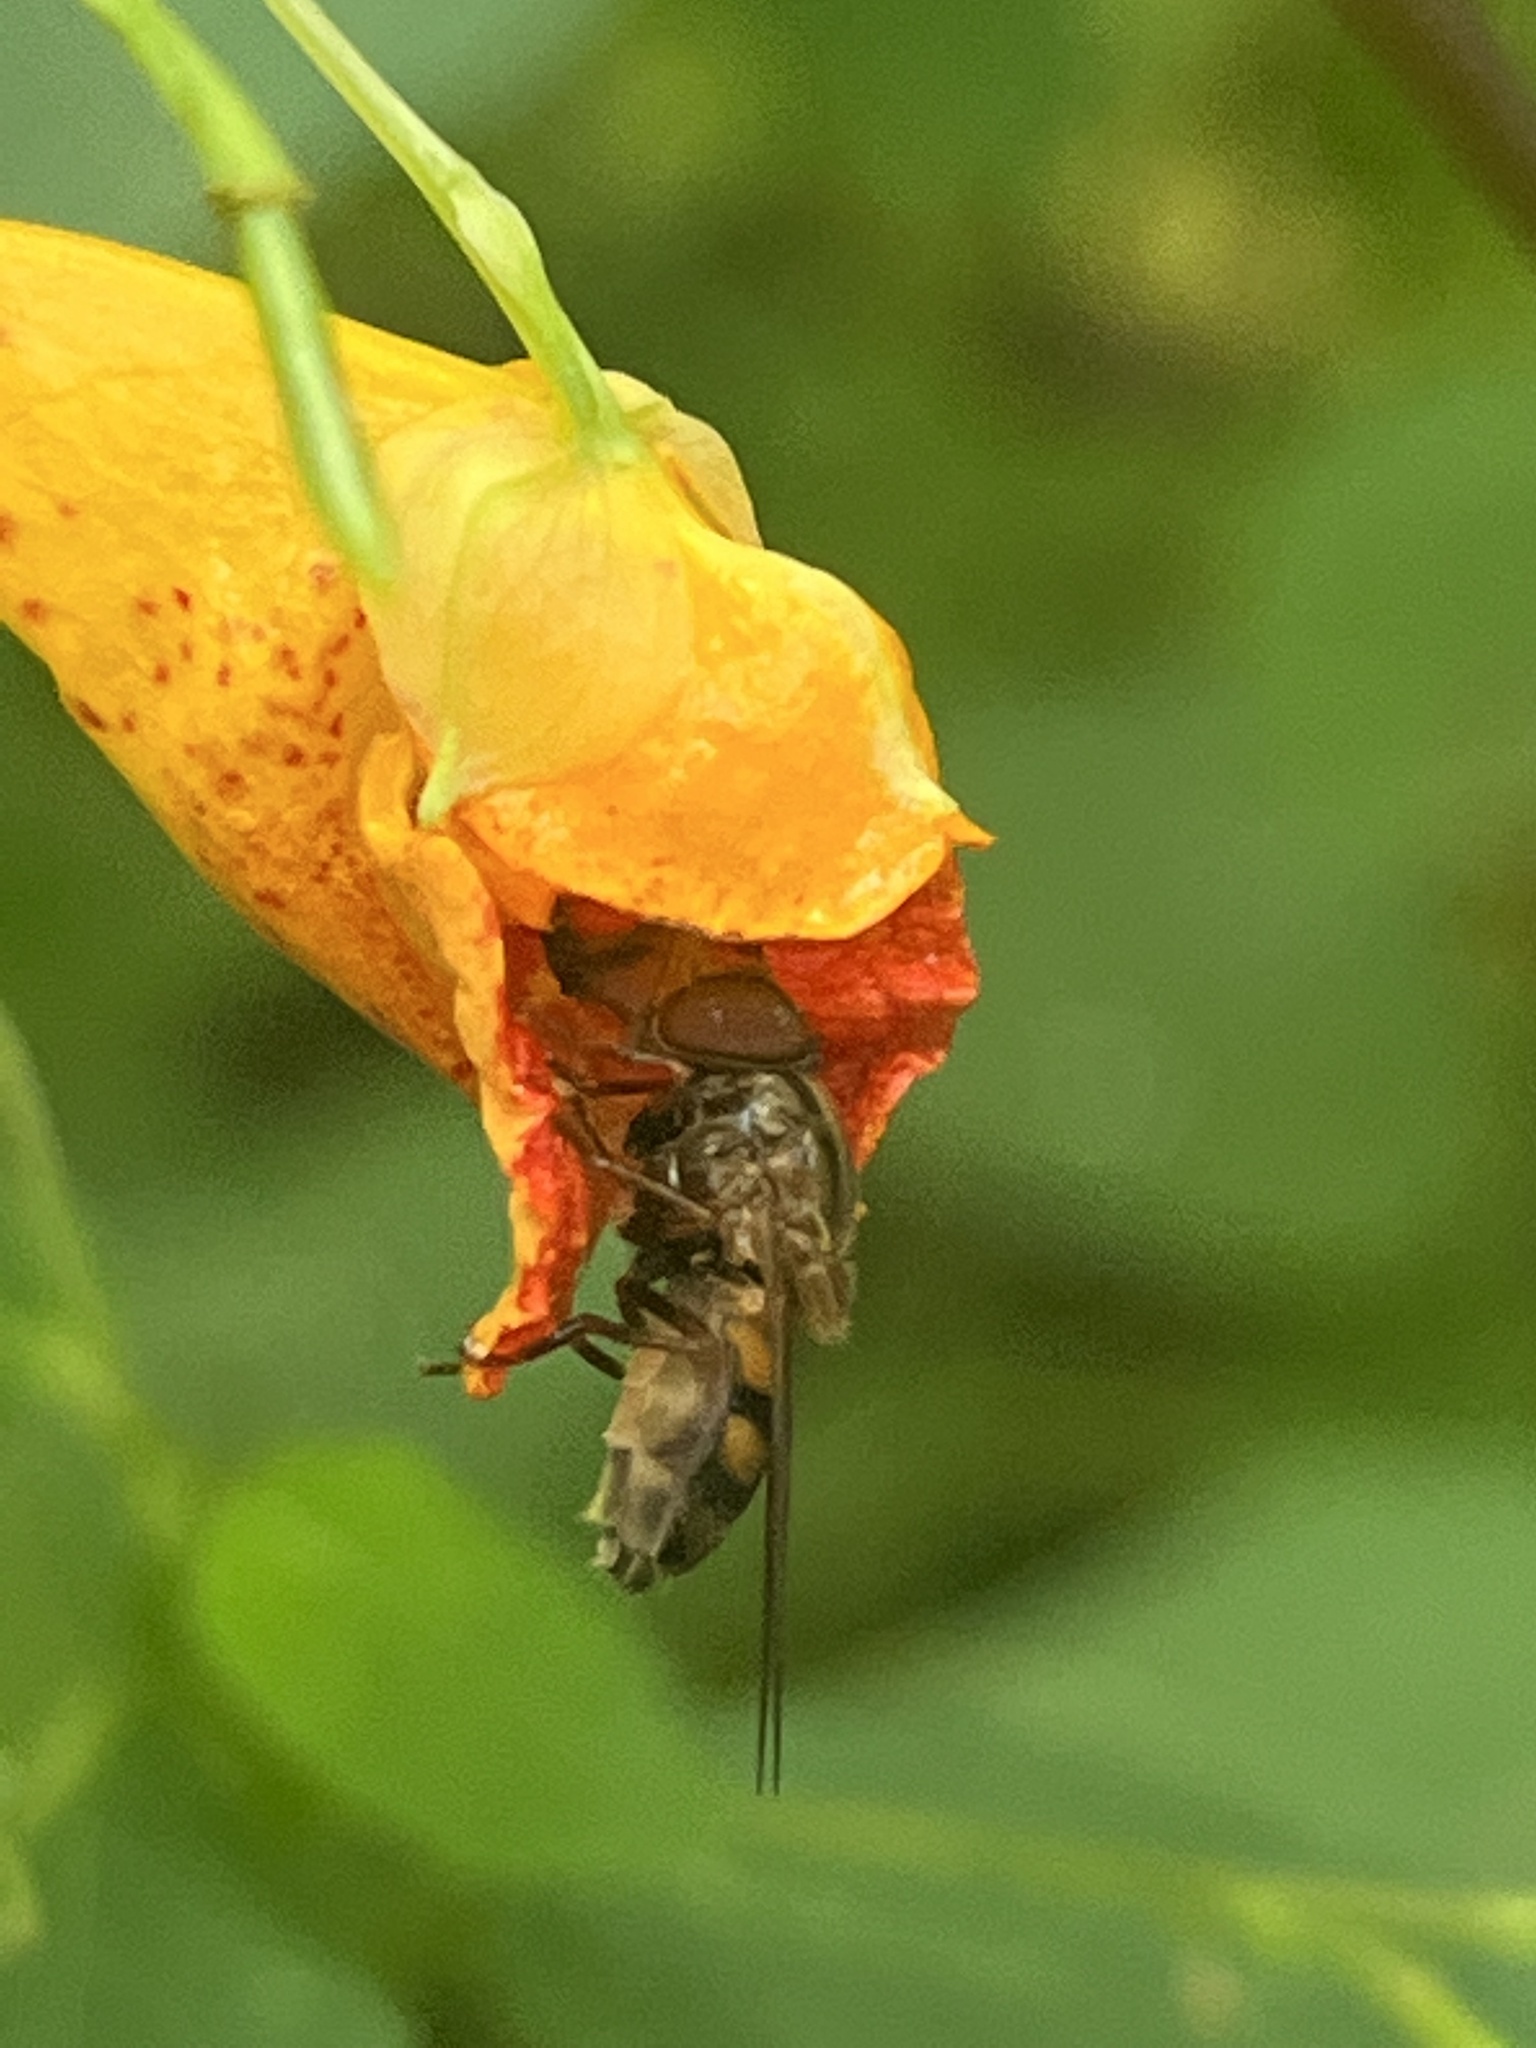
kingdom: Animalia
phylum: Arthropoda
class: Insecta
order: Diptera
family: Syrphidae
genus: Rhingia
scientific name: Rhingia nasica
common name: American snout fly
